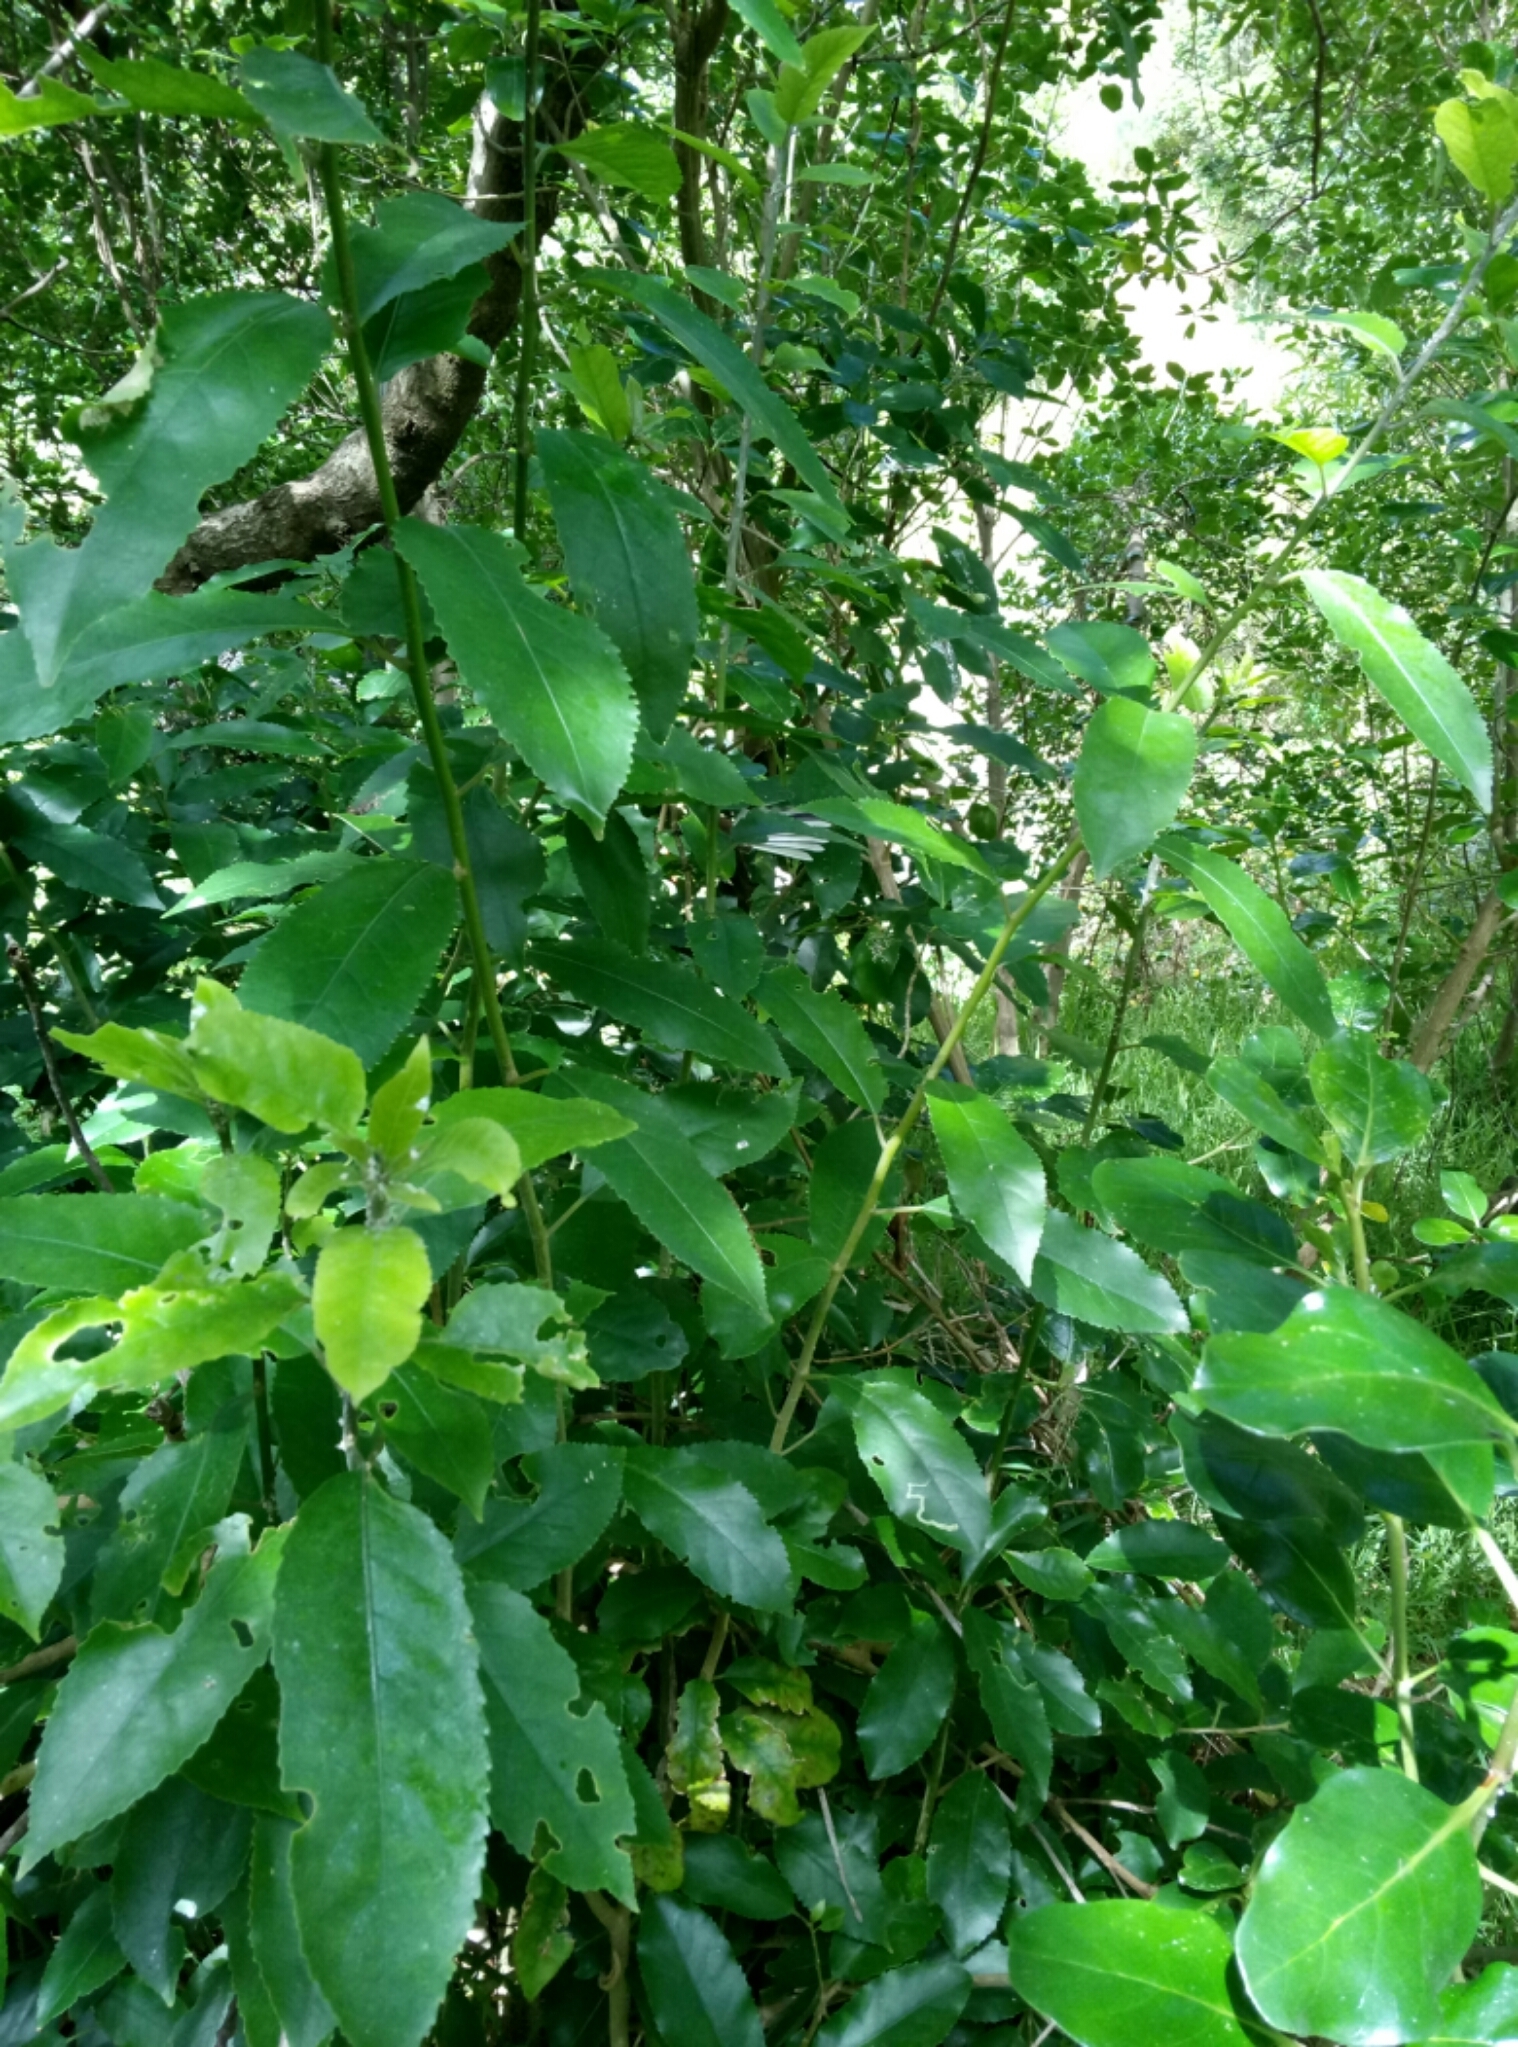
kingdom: Animalia
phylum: Chordata
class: Aves
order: Passeriformes
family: Rhipiduridae
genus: Rhipidura
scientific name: Rhipidura fuliginosa
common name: New zealand fantail
